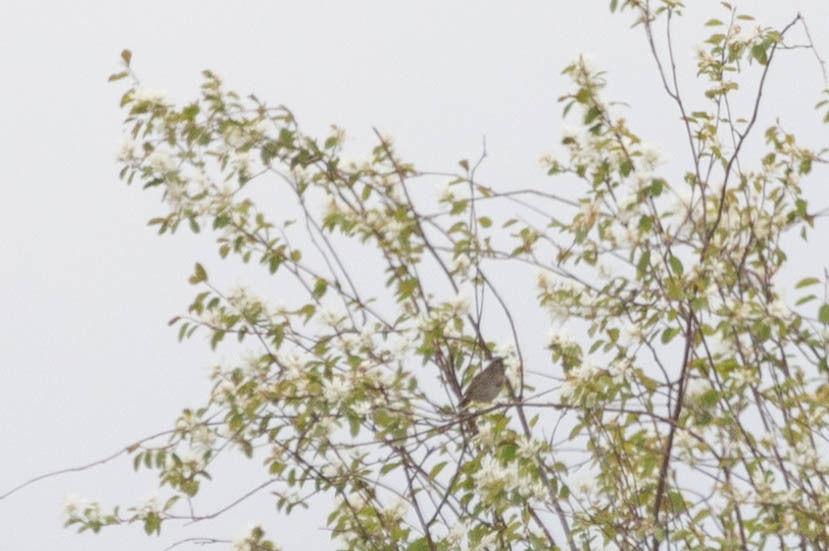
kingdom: Animalia
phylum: Chordata
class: Aves
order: Passeriformes
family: Passerellidae
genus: Melospiza
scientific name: Melospiza lincolnii
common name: Lincoln's sparrow
